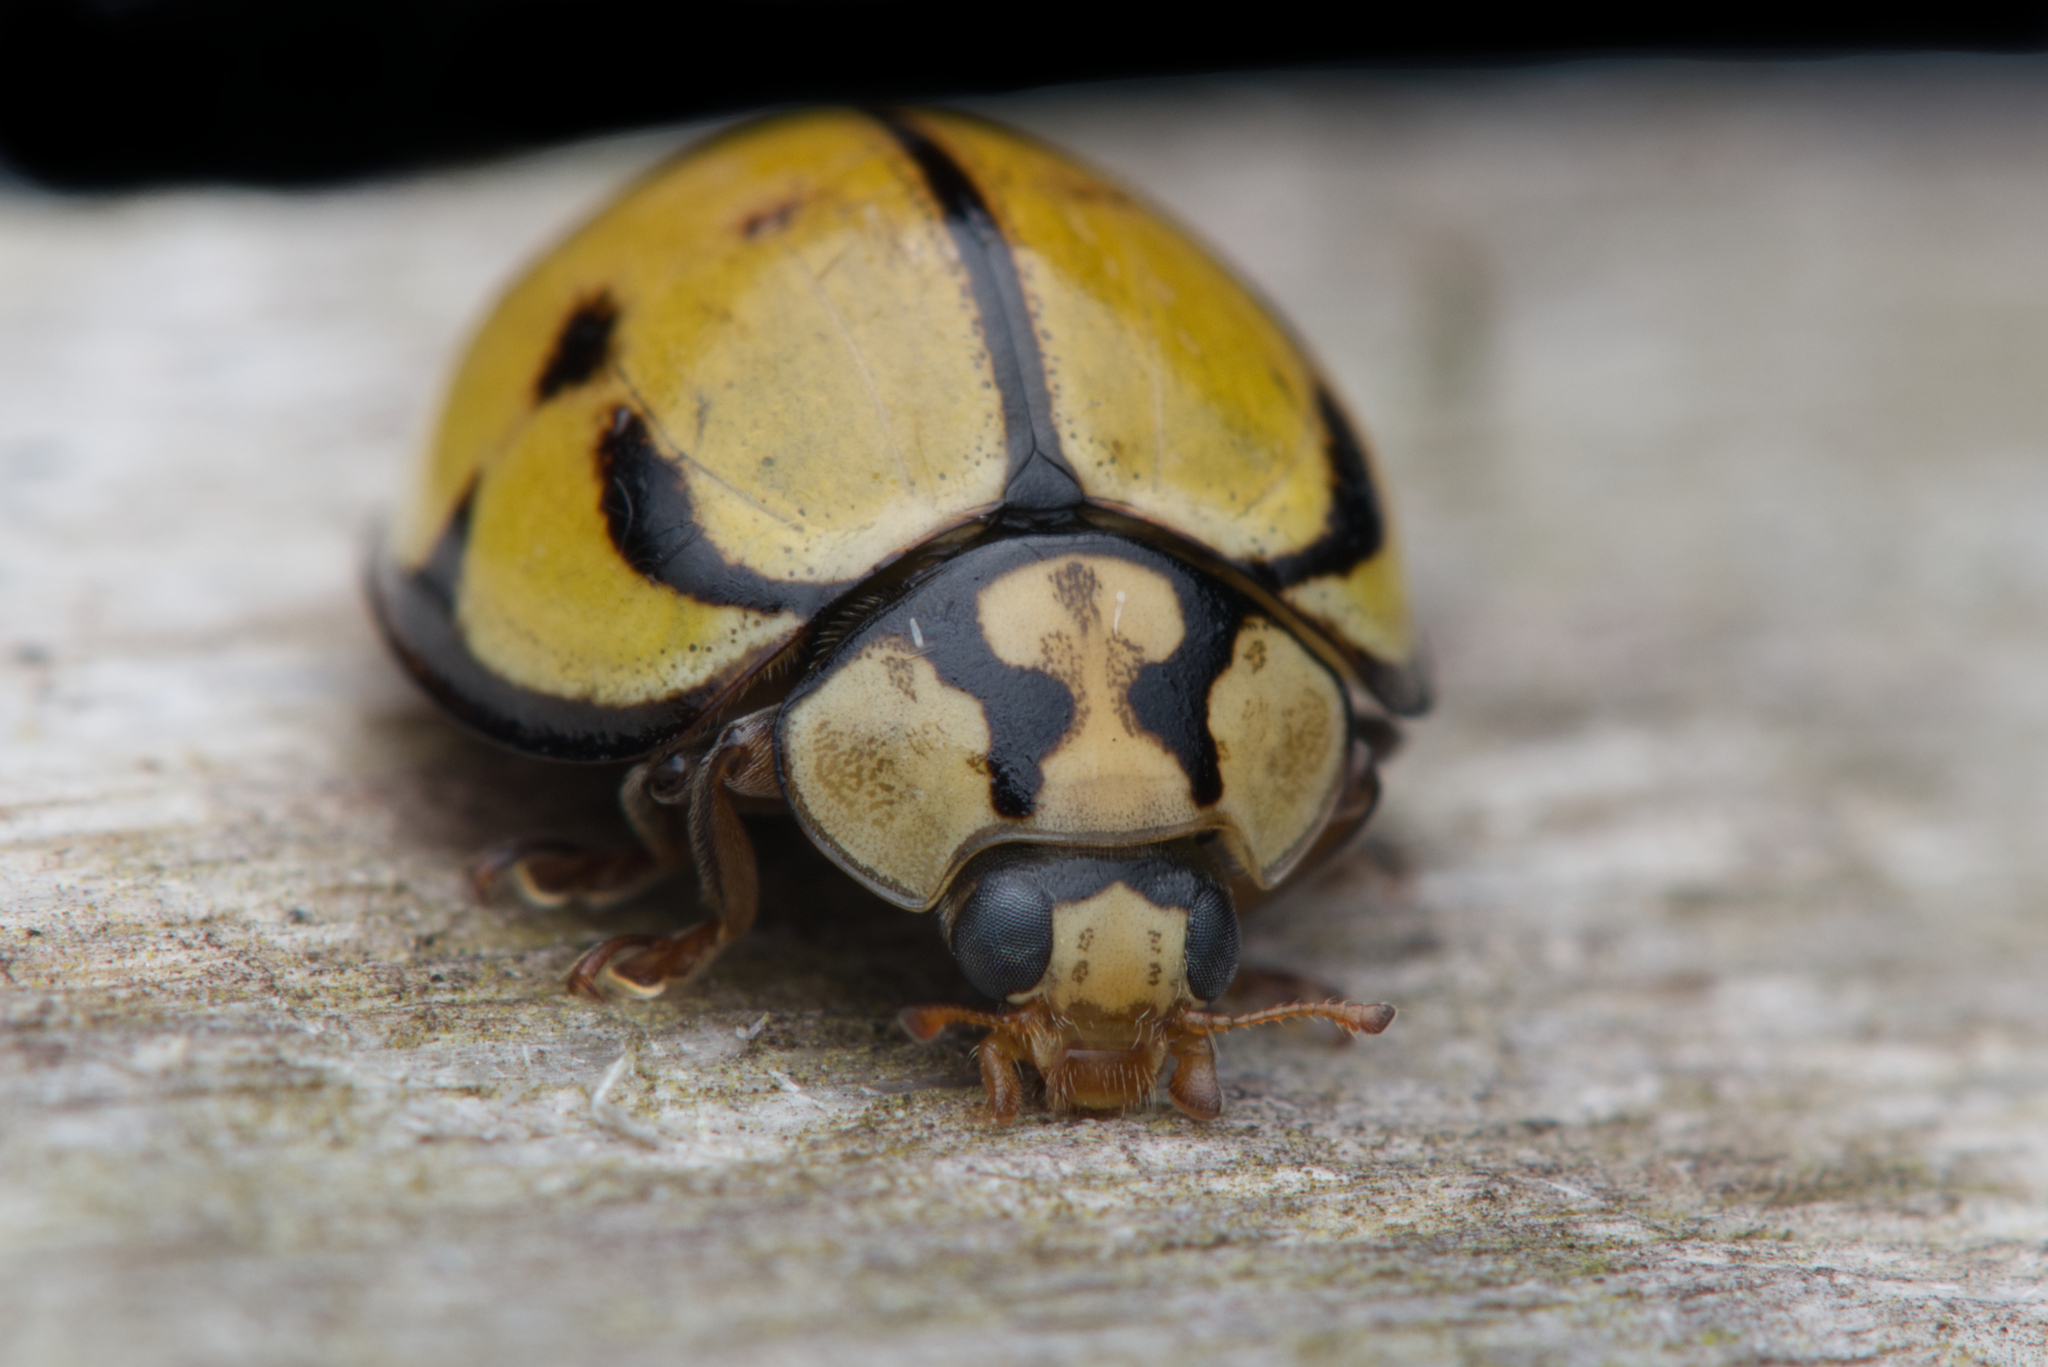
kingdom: Animalia
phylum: Arthropoda
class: Insecta
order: Coleoptera
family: Coccinellidae
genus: Harmonia
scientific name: Harmonia
